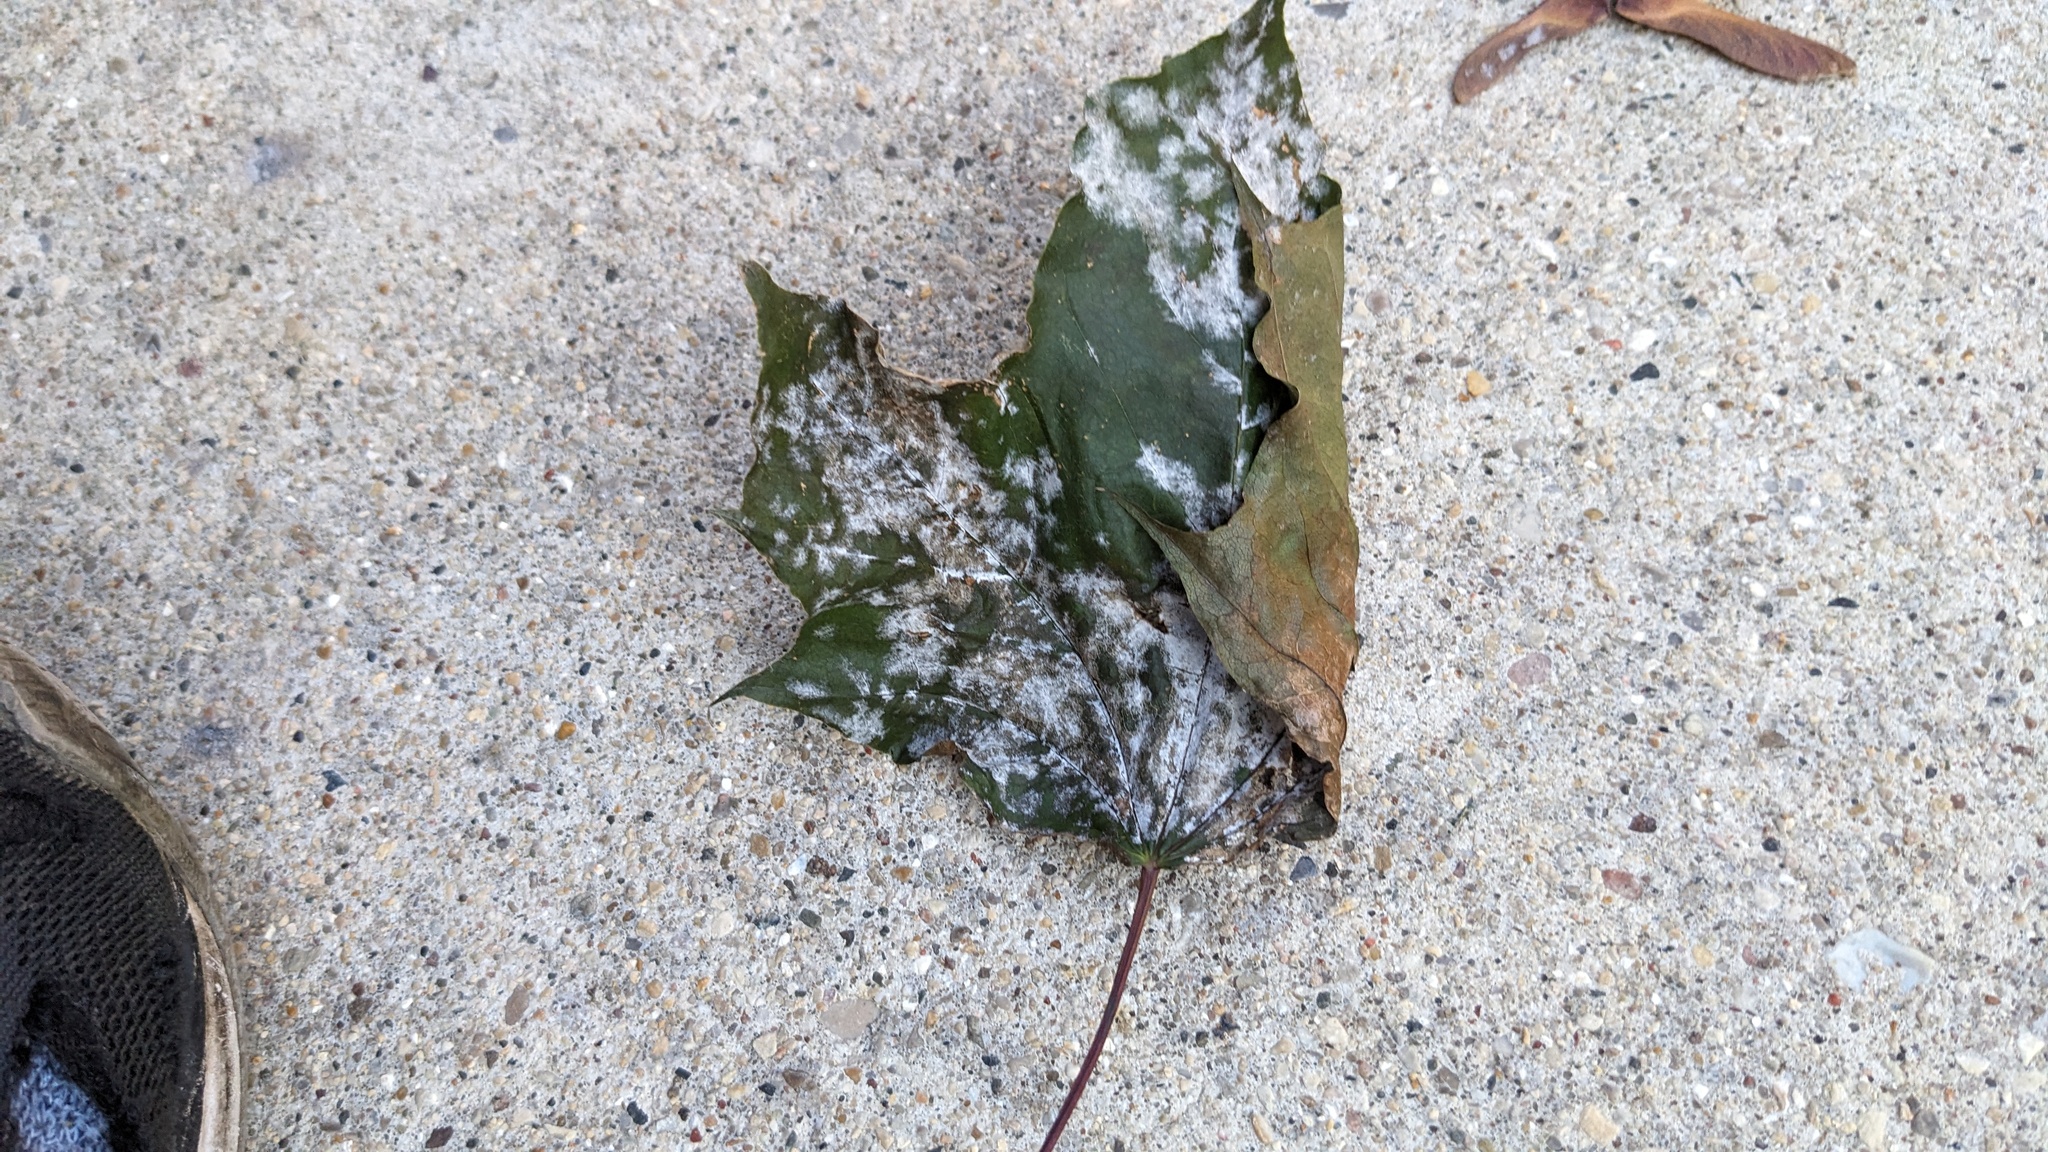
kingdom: Fungi
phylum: Ascomycota
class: Leotiomycetes
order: Helotiales
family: Erysiphaceae
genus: Sawadaea
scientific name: Sawadaea tulasnei
